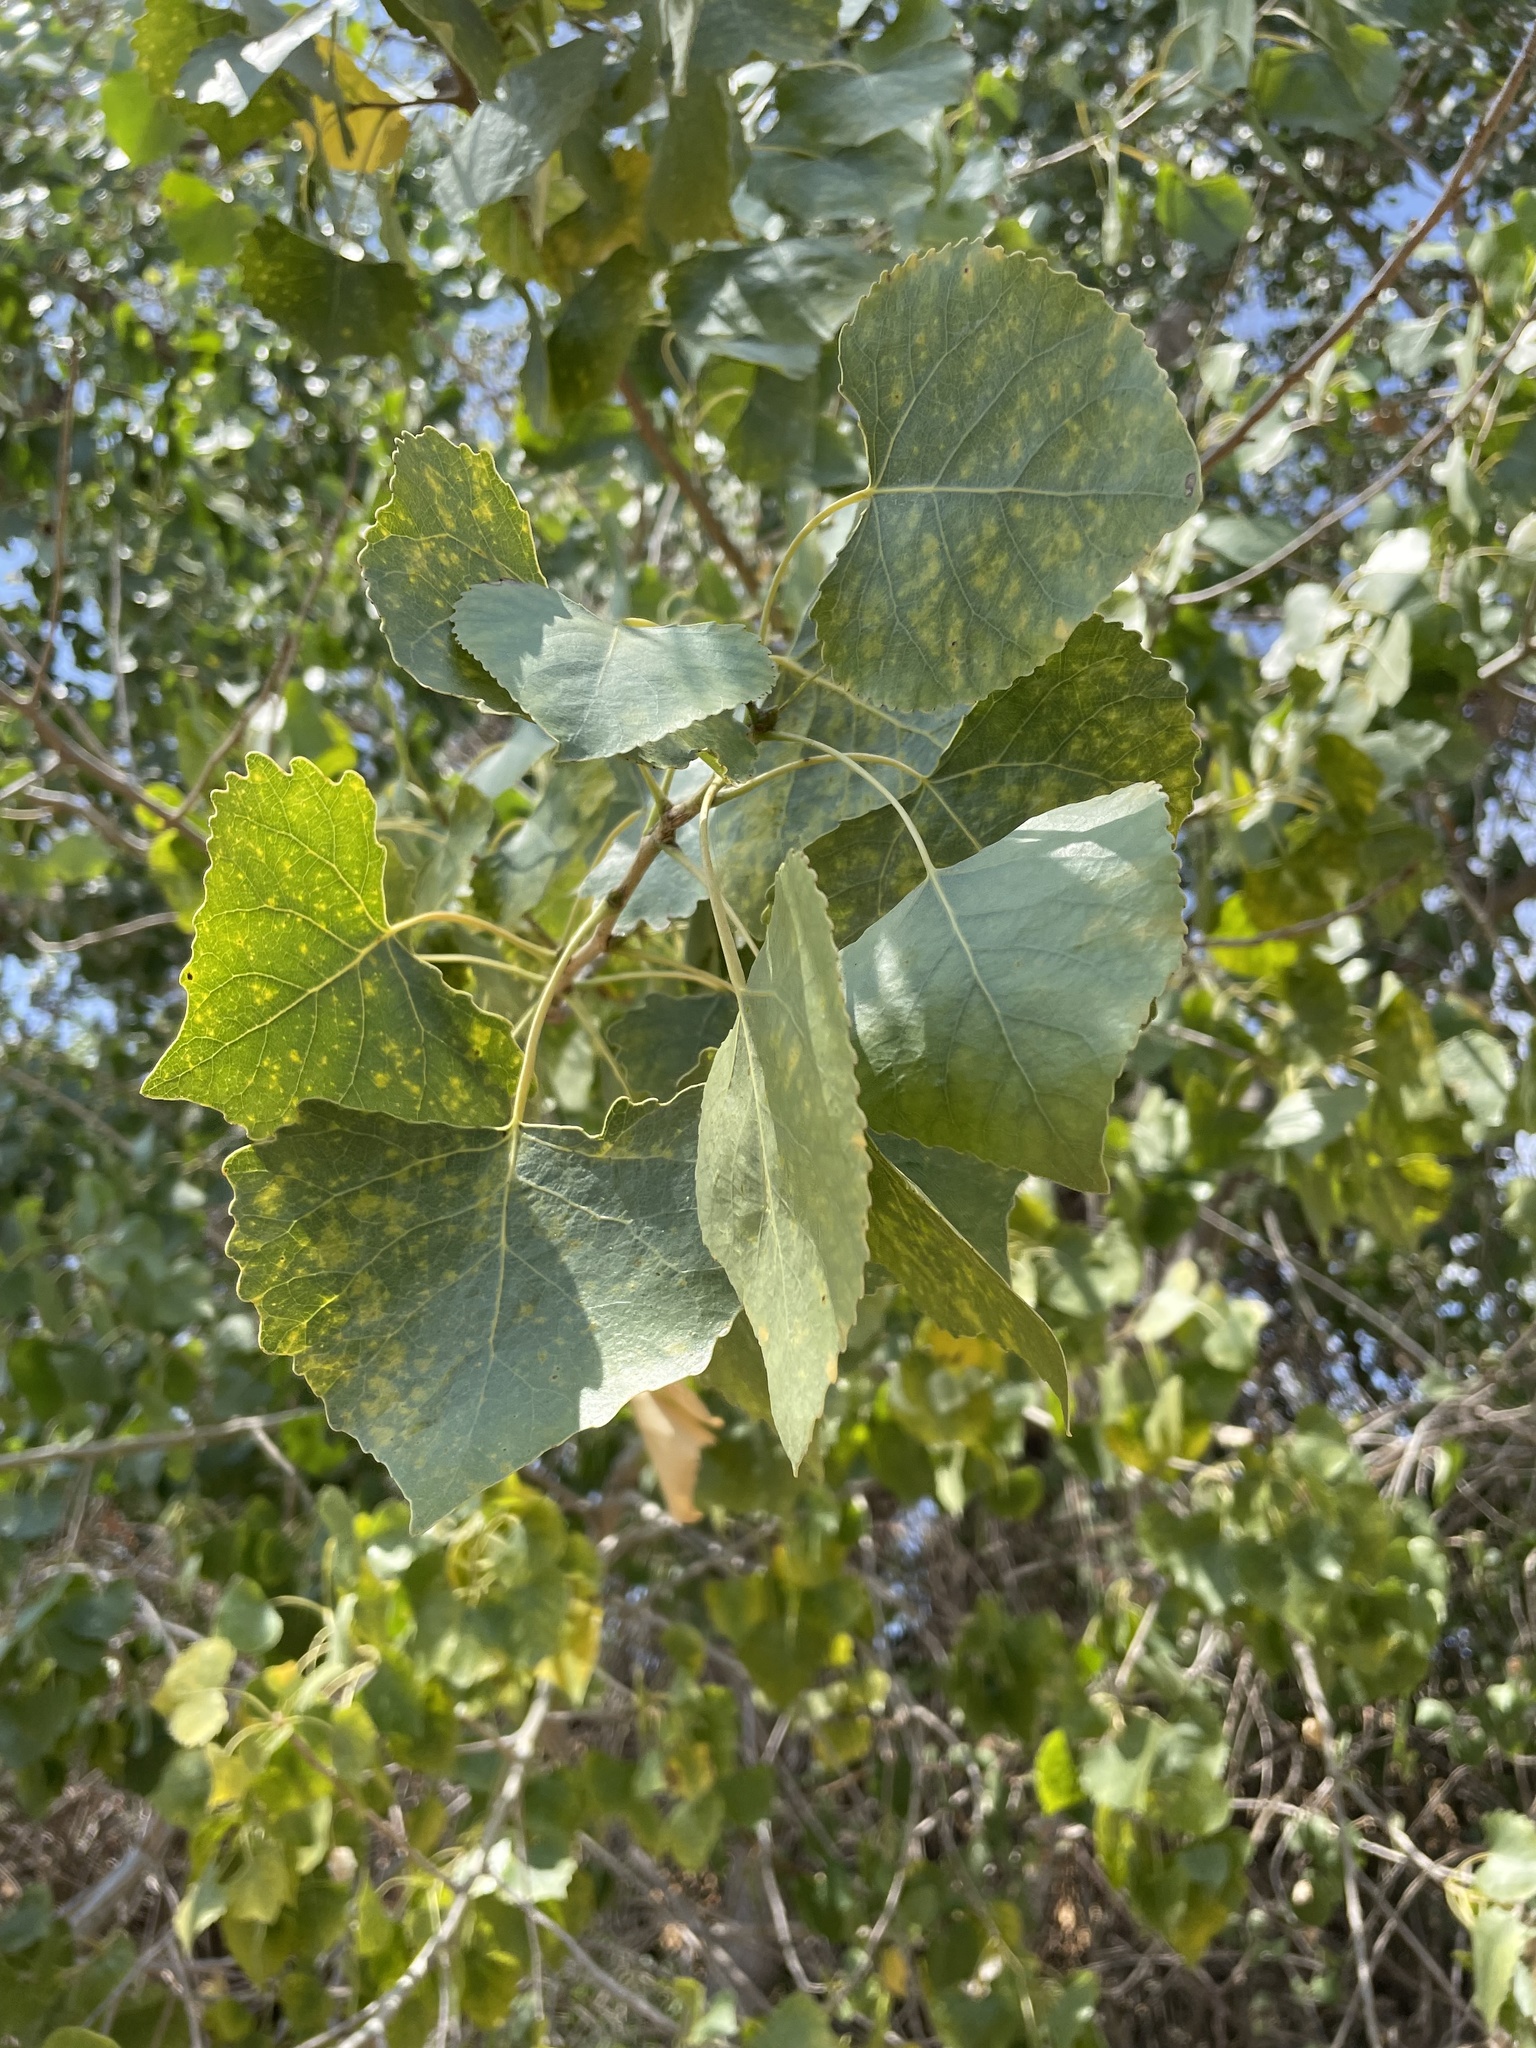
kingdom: Plantae
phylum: Tracheophyta
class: Magnoliopsida
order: Malpighiales
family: Salicaceae
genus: Populus
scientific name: Populus fremontii
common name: Fremont's cottonwood
